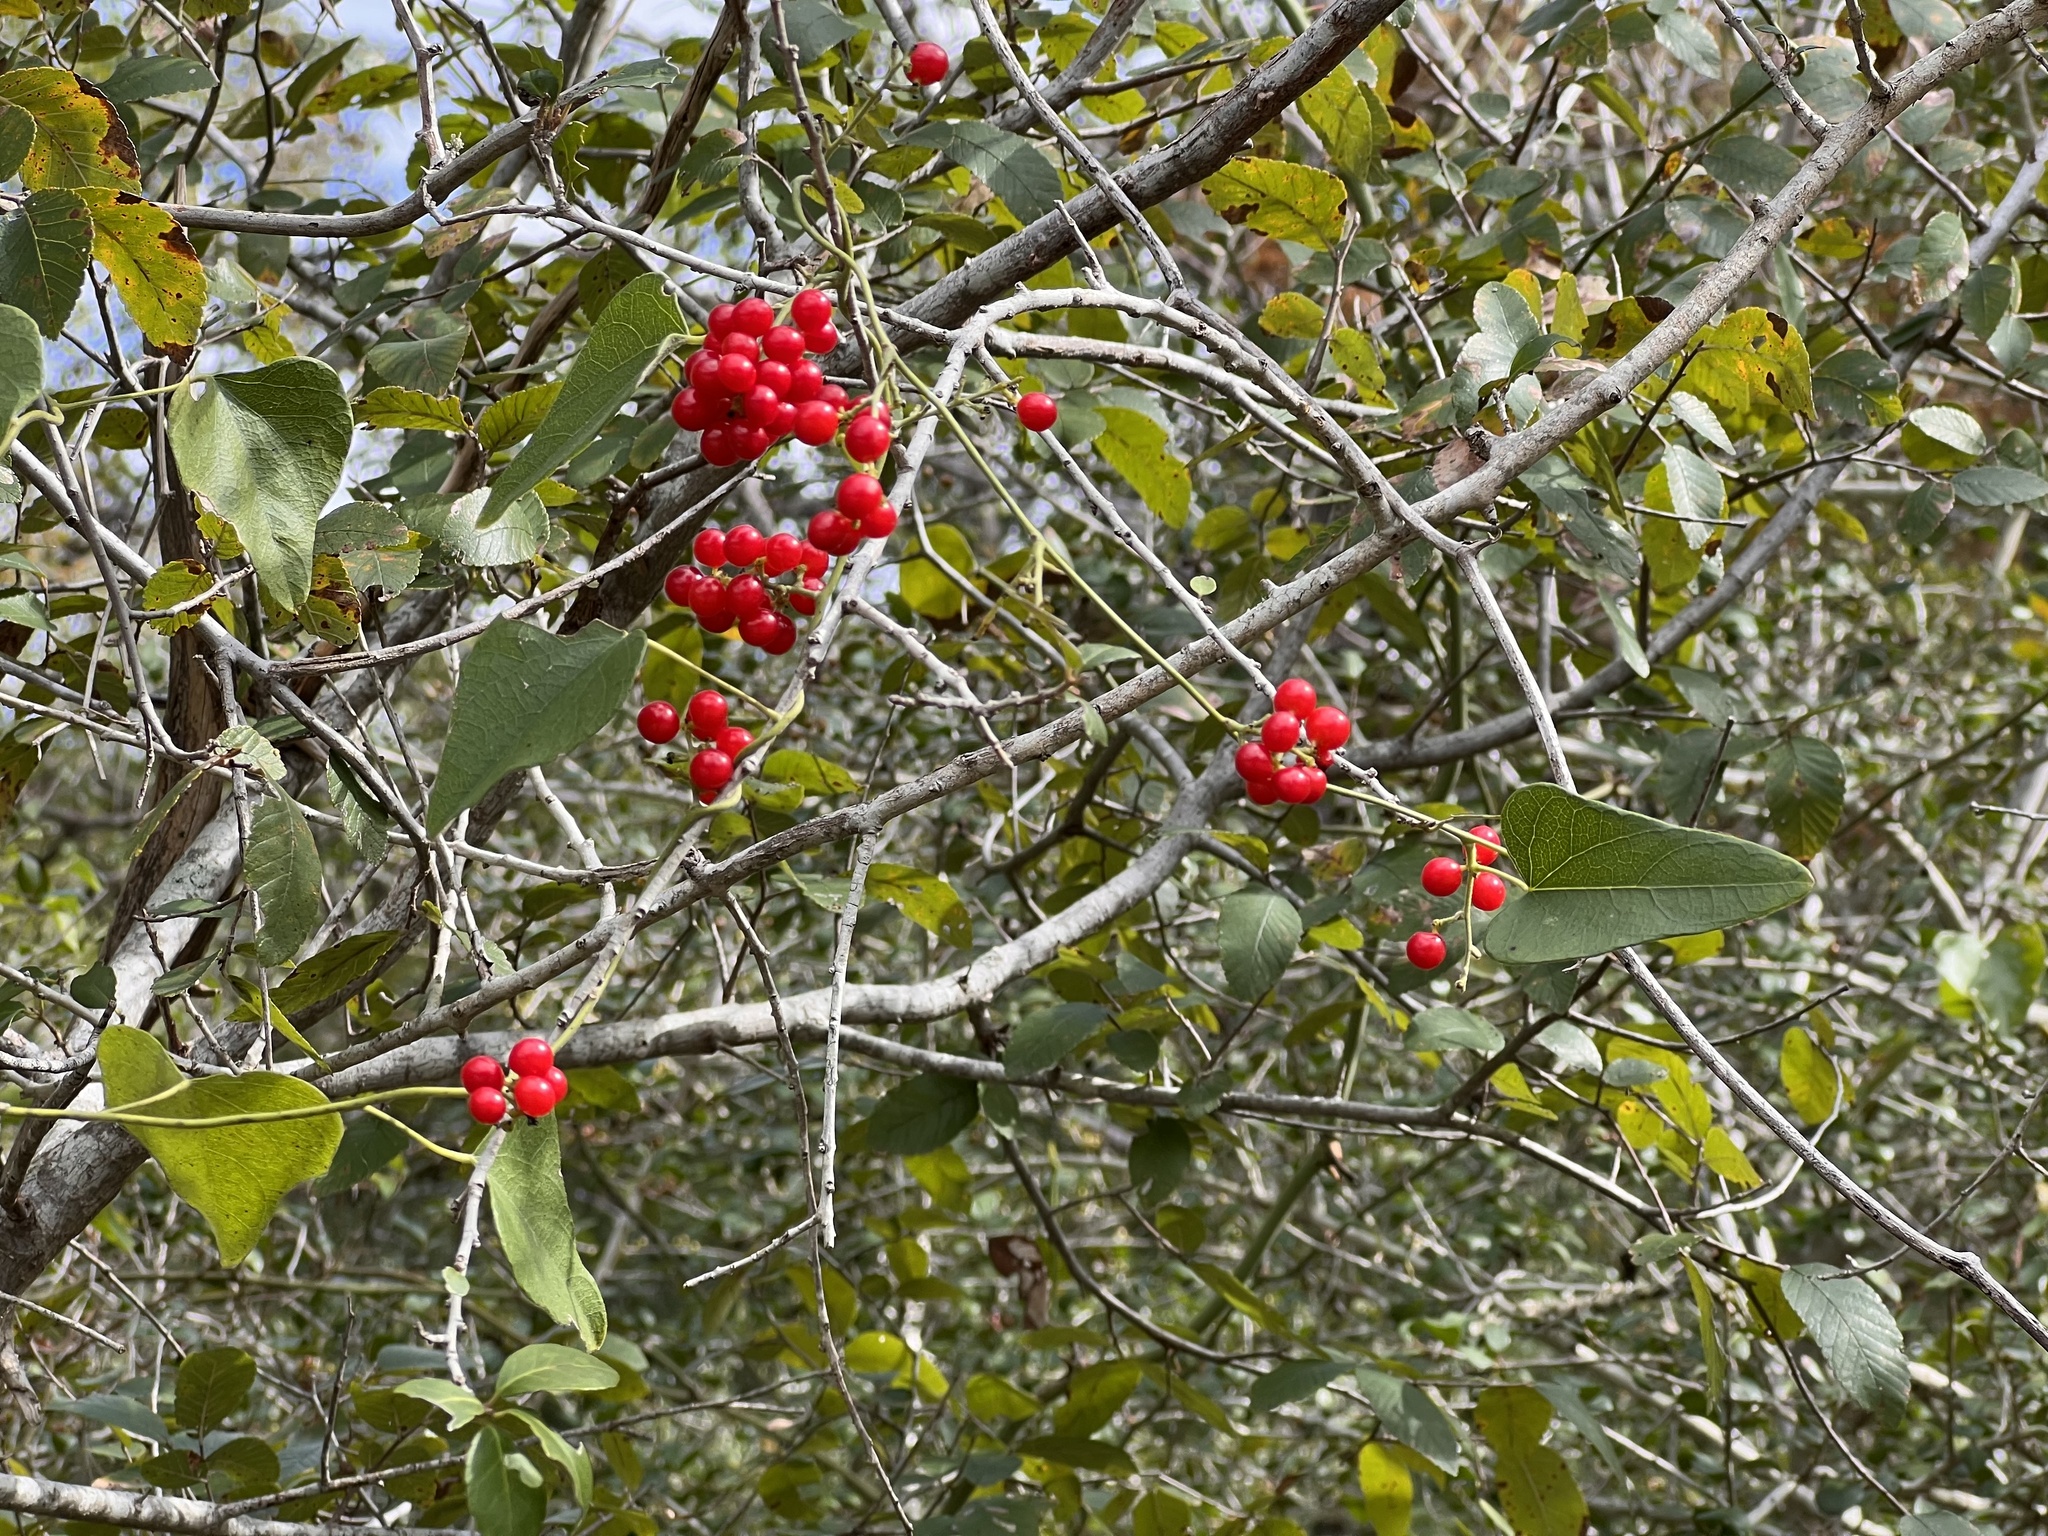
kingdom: Plantae
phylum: Tracheophyta
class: Magnoliopsida
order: Ranunculales
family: Menispermaceae
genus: Cocculus
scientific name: Cocculus carolinus
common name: Carolina moonseed
